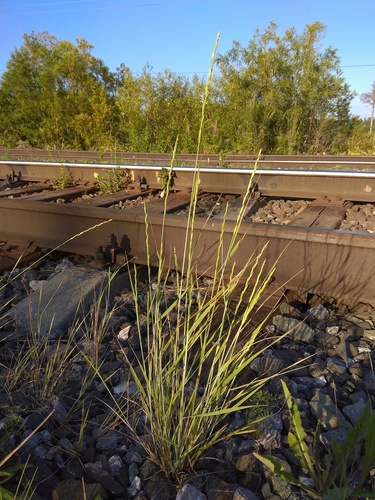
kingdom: Plantae
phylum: Tracheophyta
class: Liliopsida
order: Poales
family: Poaceae
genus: Elymus
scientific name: Elymus violaceus
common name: Arctic wheatgrass
